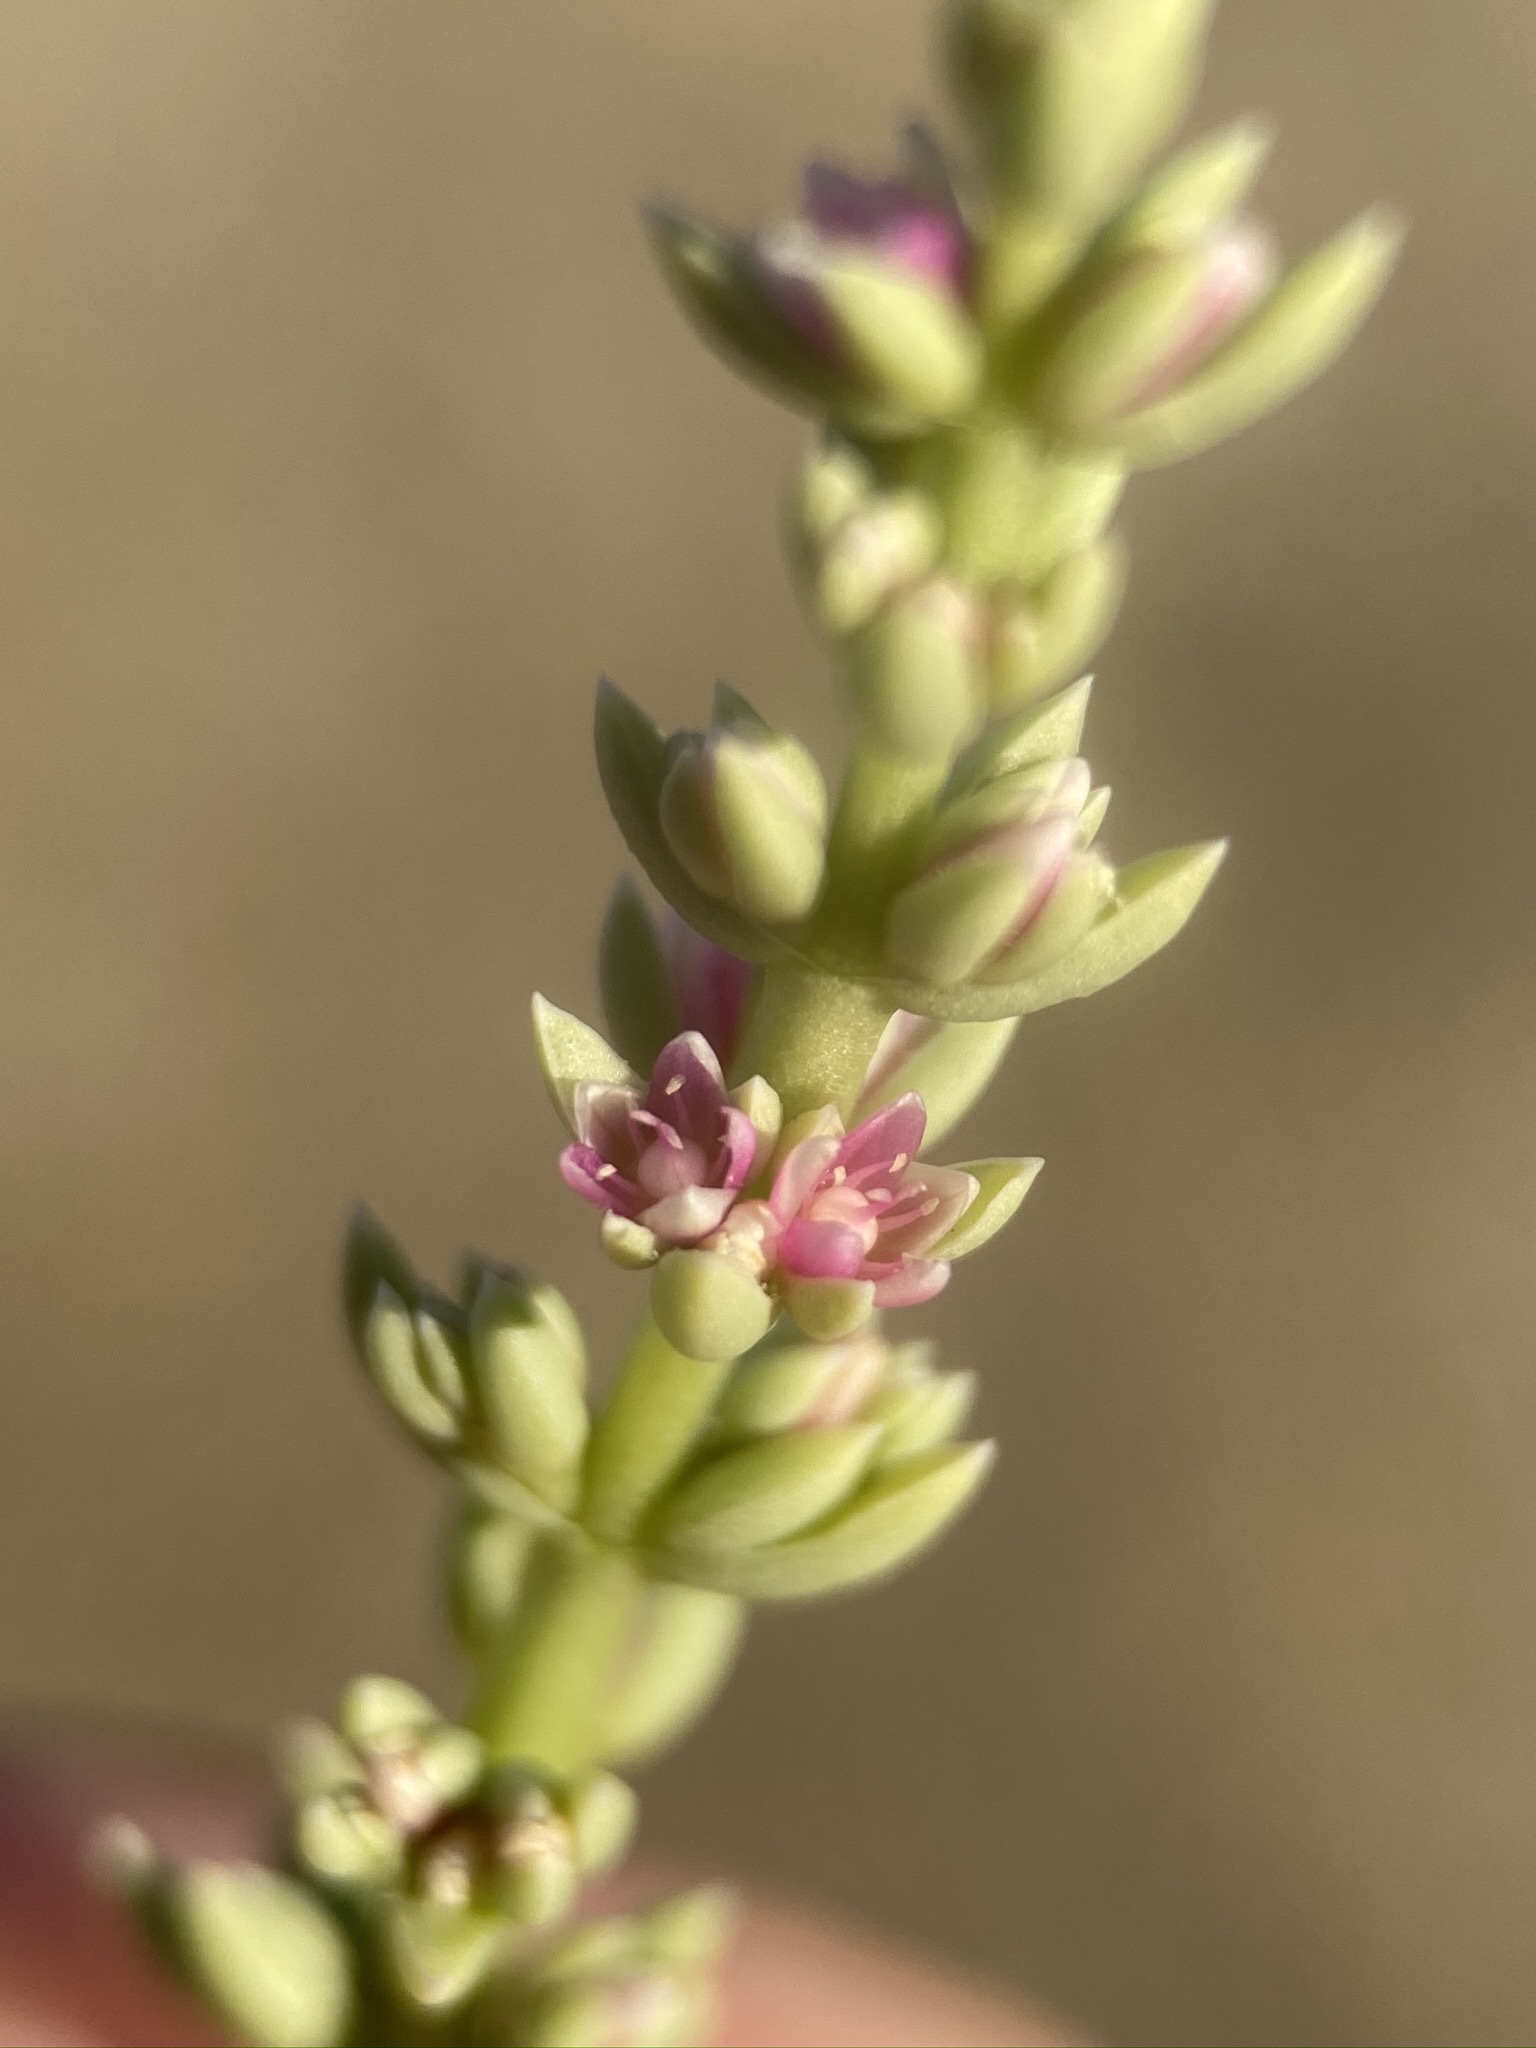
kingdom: Plantae
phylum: Tracheophyta
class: Magnoliopsida
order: Caryophyllales
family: Amaranthaceae
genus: Nitrophila
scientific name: Nitrophila occidentalis
